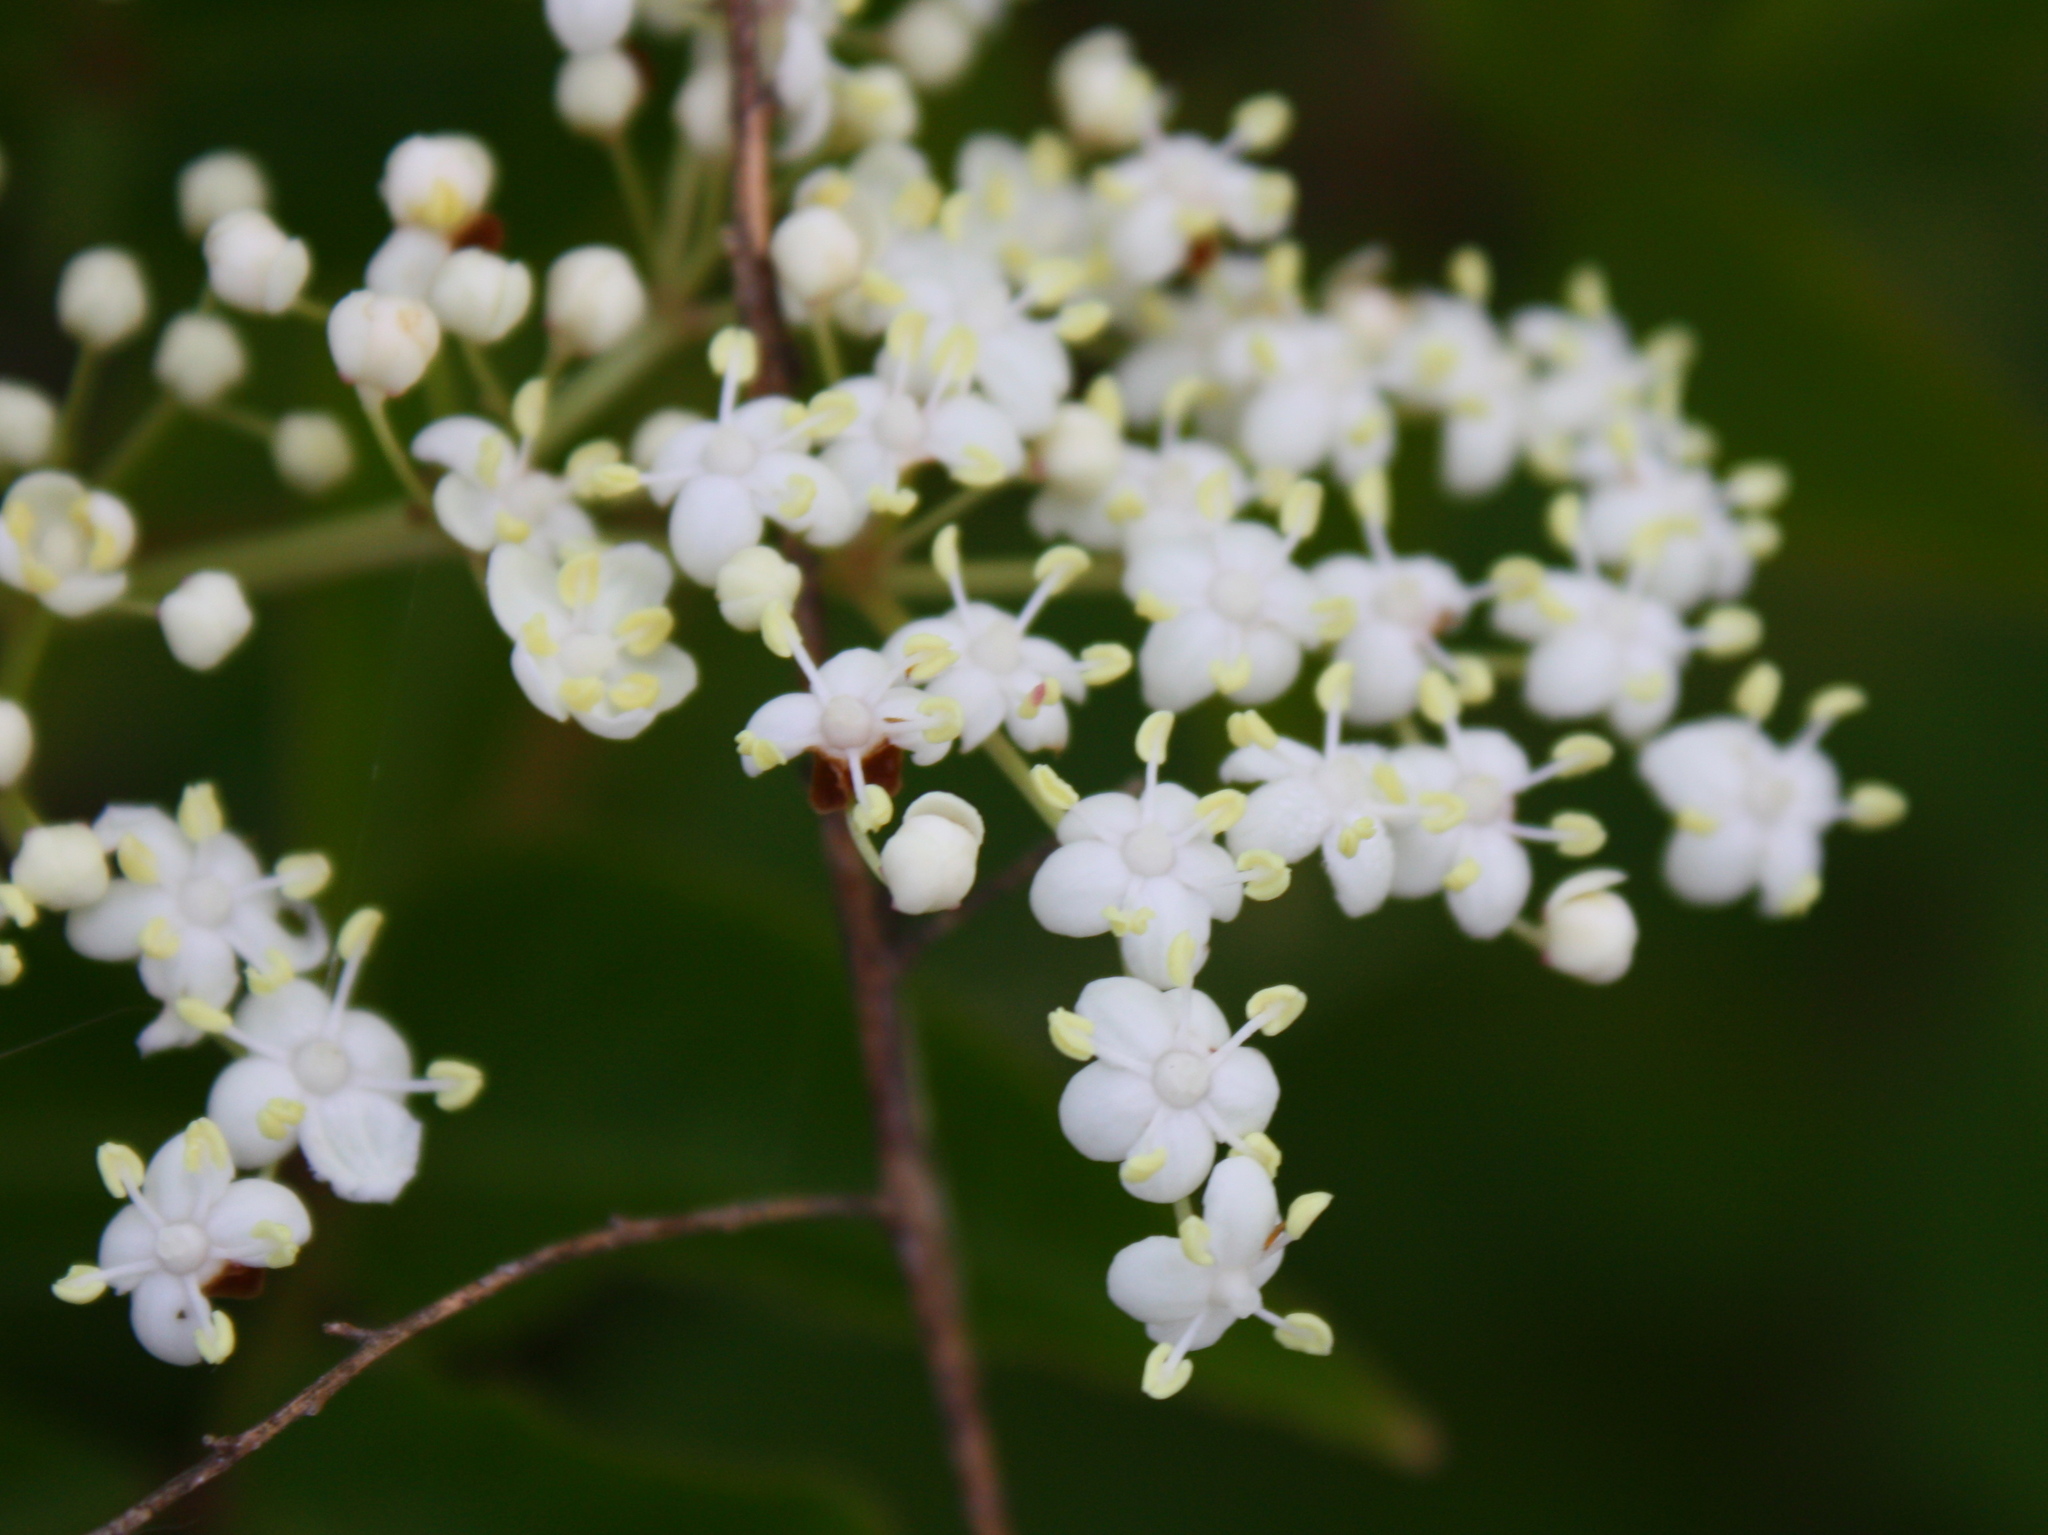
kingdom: Plantae
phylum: Tracheophyta
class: Magnoliopsida
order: Dipsacales
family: Viburnaceae
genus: Sambucus
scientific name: Sambucus canadensis
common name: American elder
